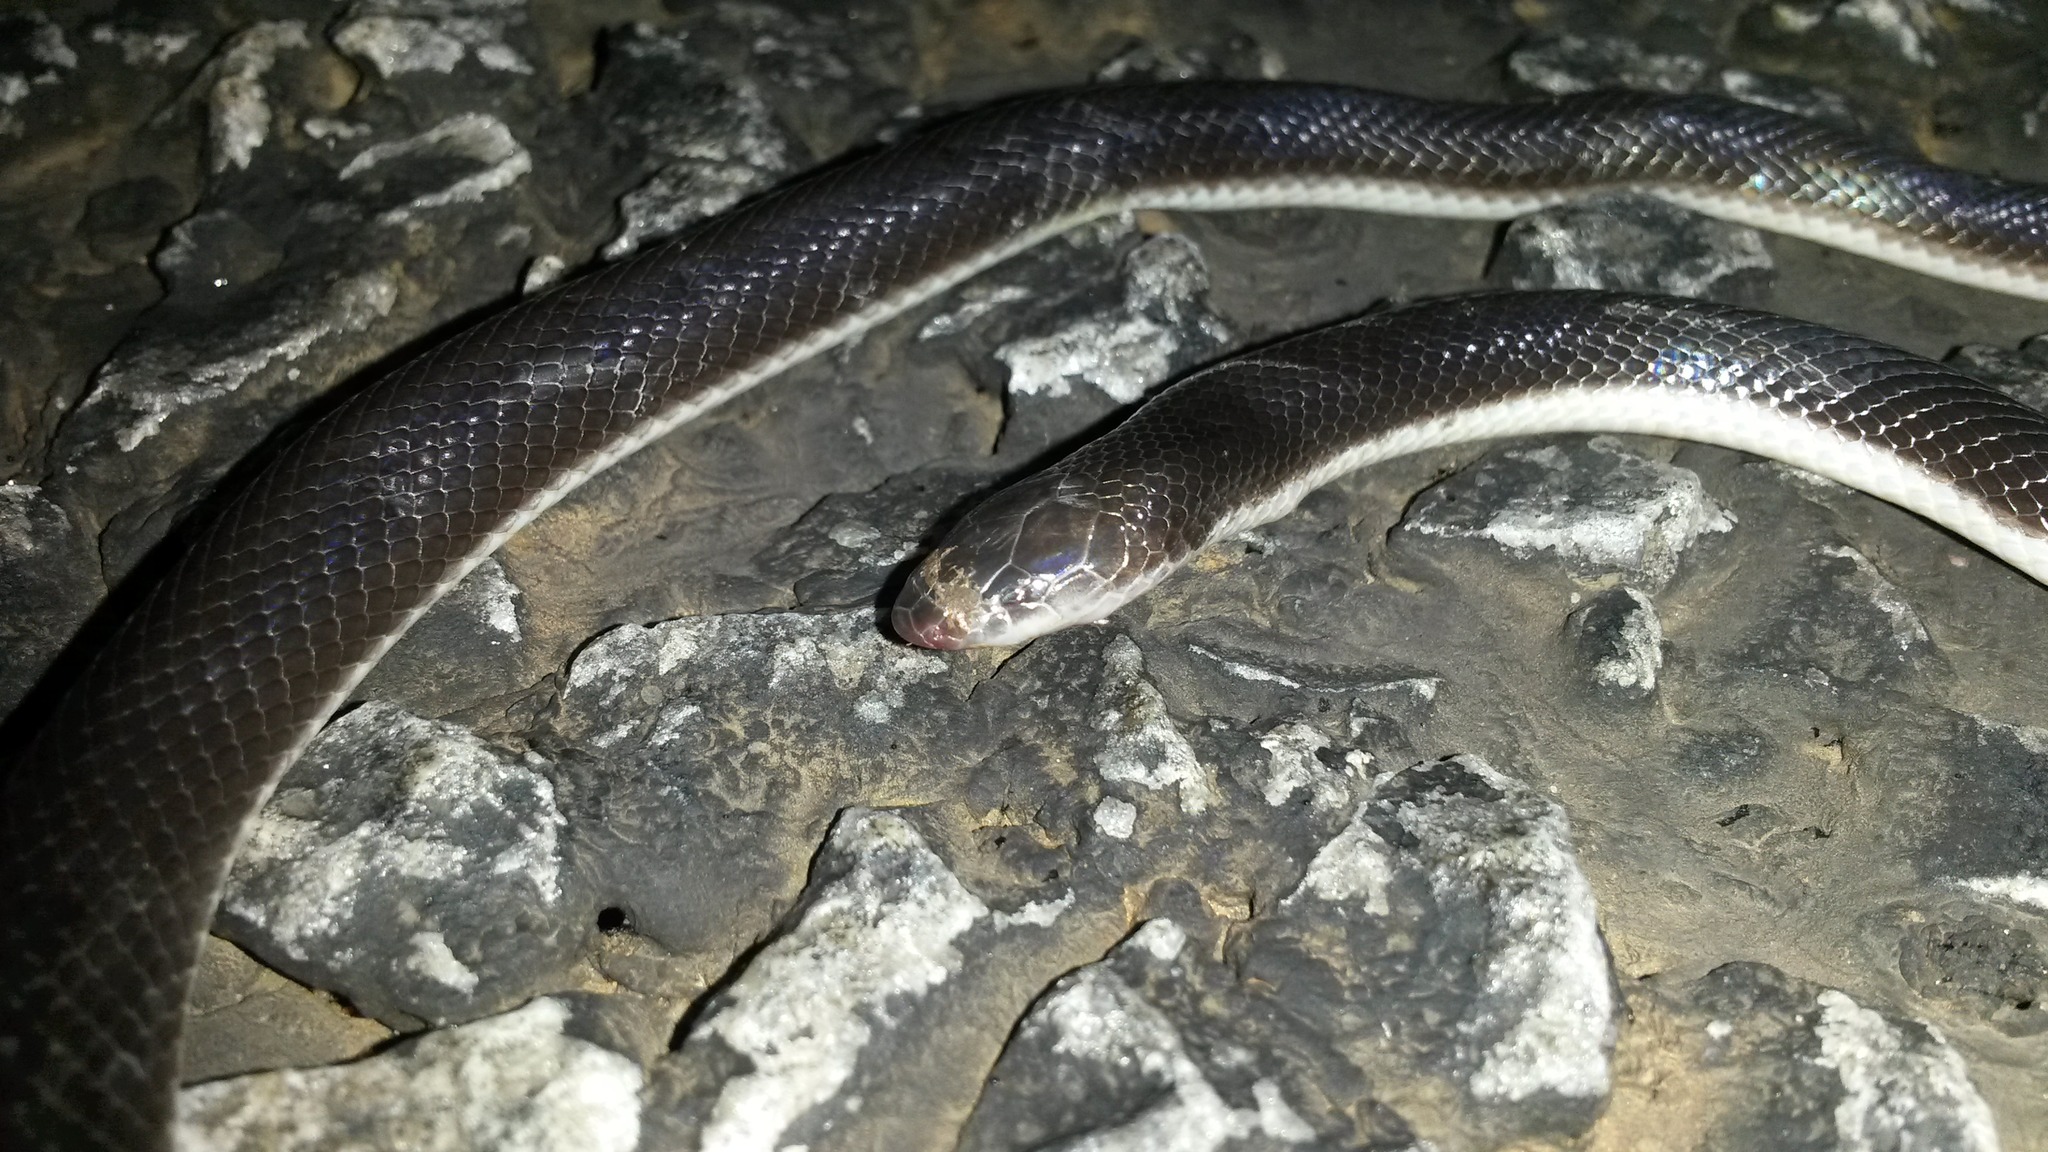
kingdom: Animalia
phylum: Chordata
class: Squamata
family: Atractaspididae
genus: Atractaspis
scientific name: Atractaspis bibronii
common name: Bibron's burrowing asp
